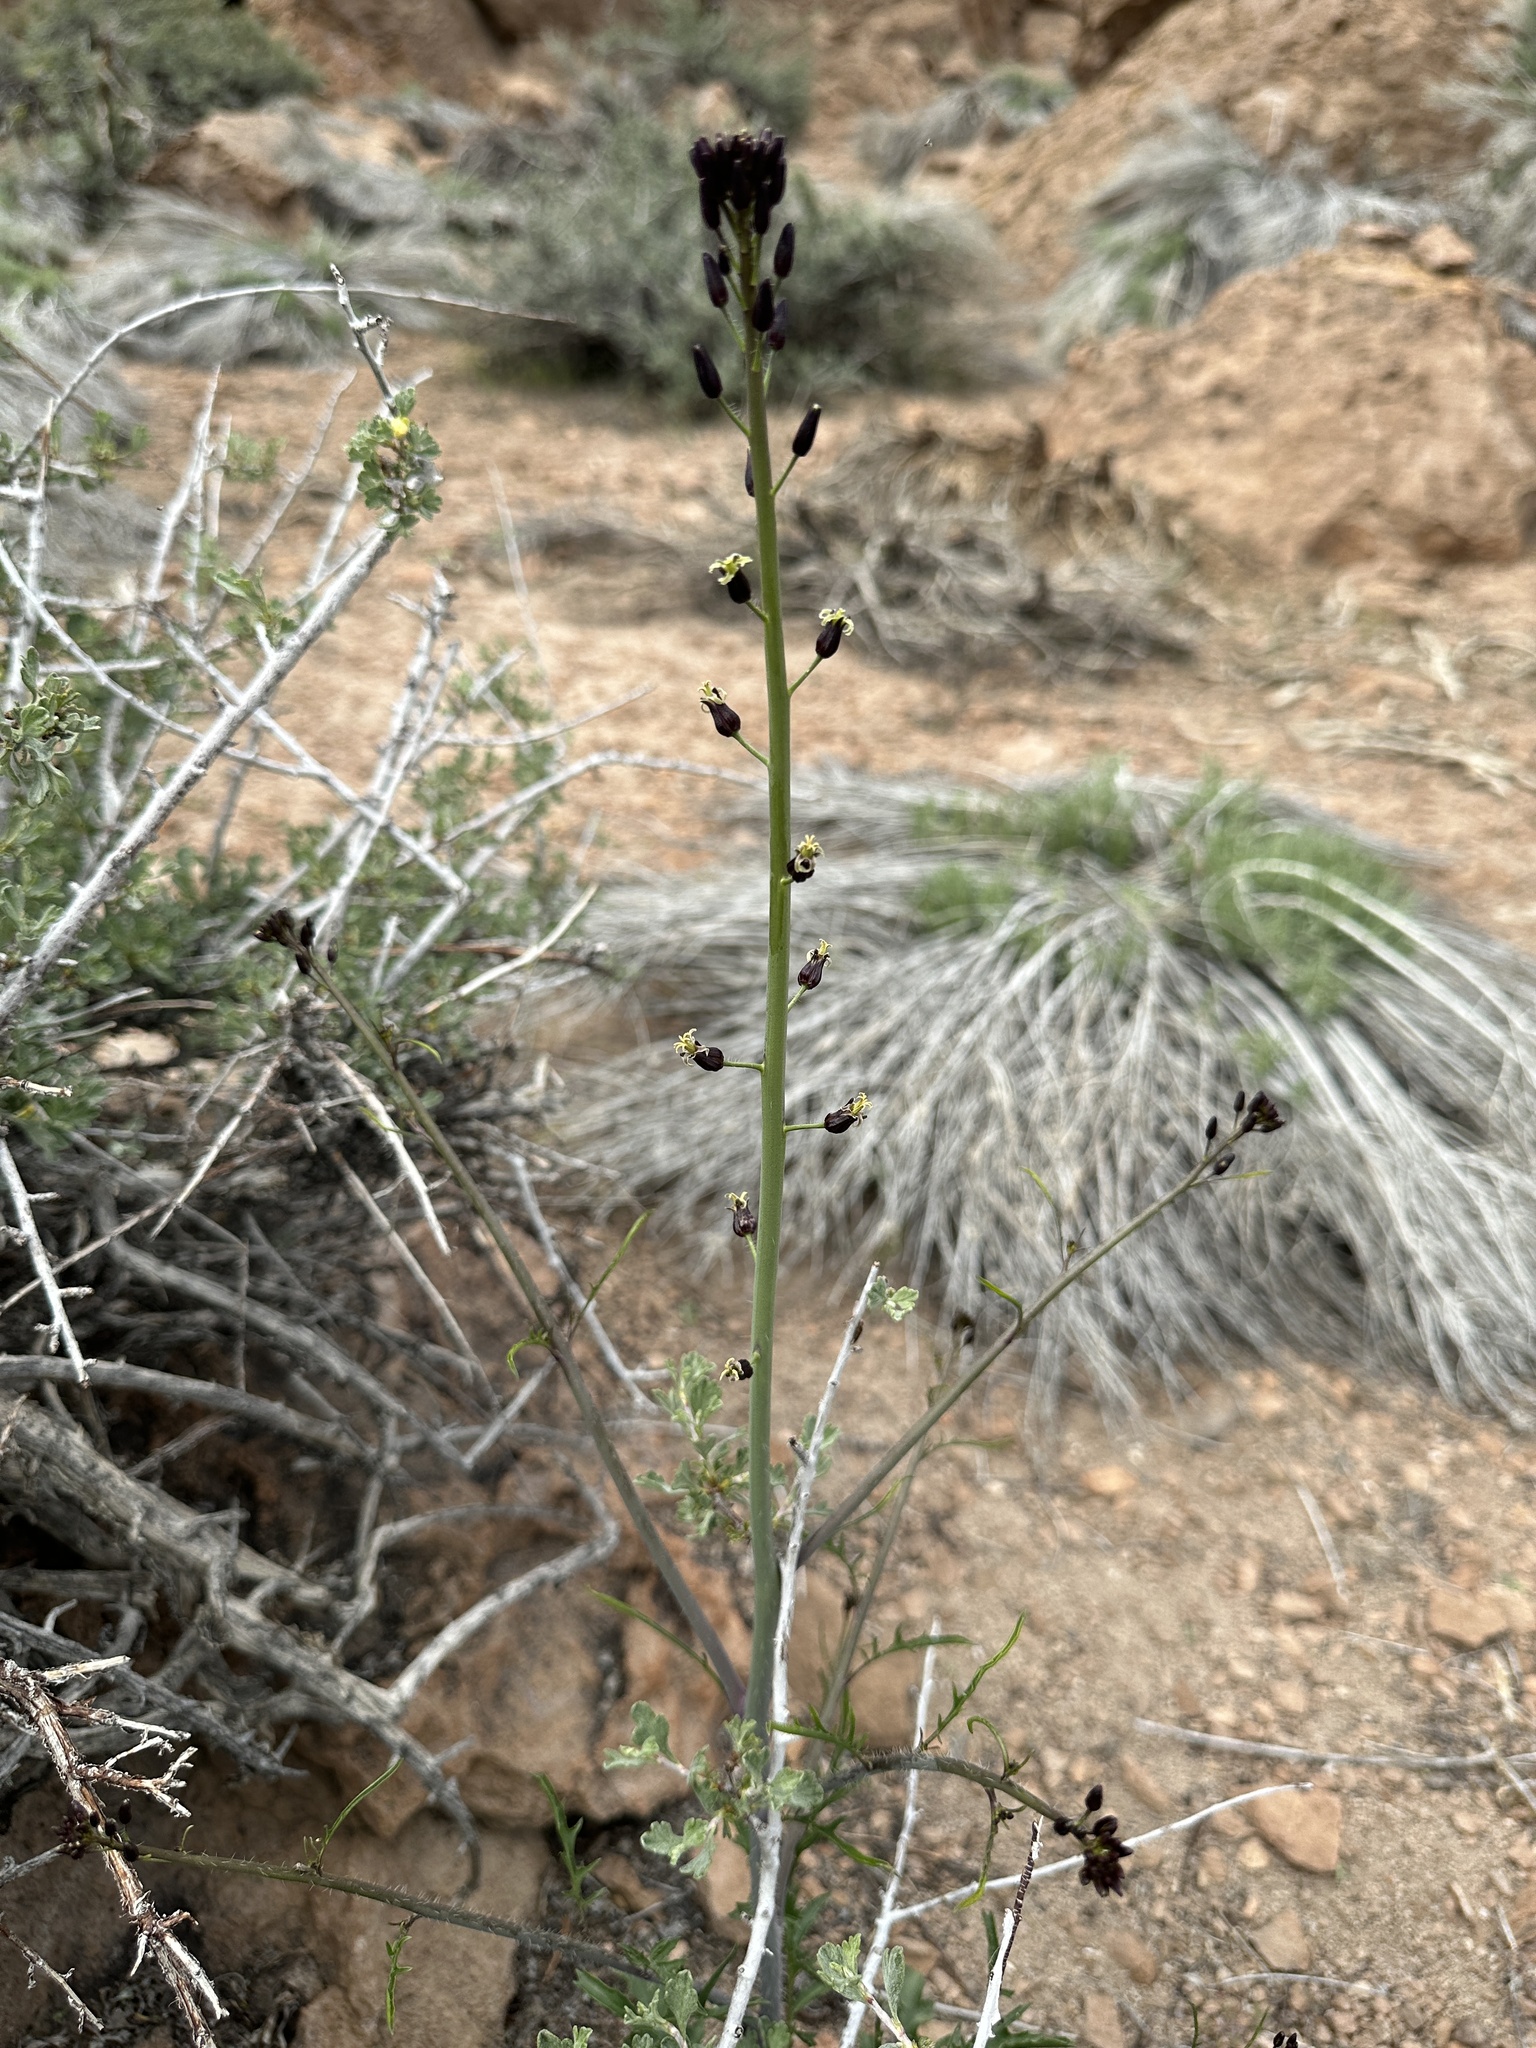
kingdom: Plantae
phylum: Tracheophyta
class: Magnoliopsida
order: Brassicales
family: Brassicaceae
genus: Streptanthus
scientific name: Streptanthus pilosus
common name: Chocolate drops
